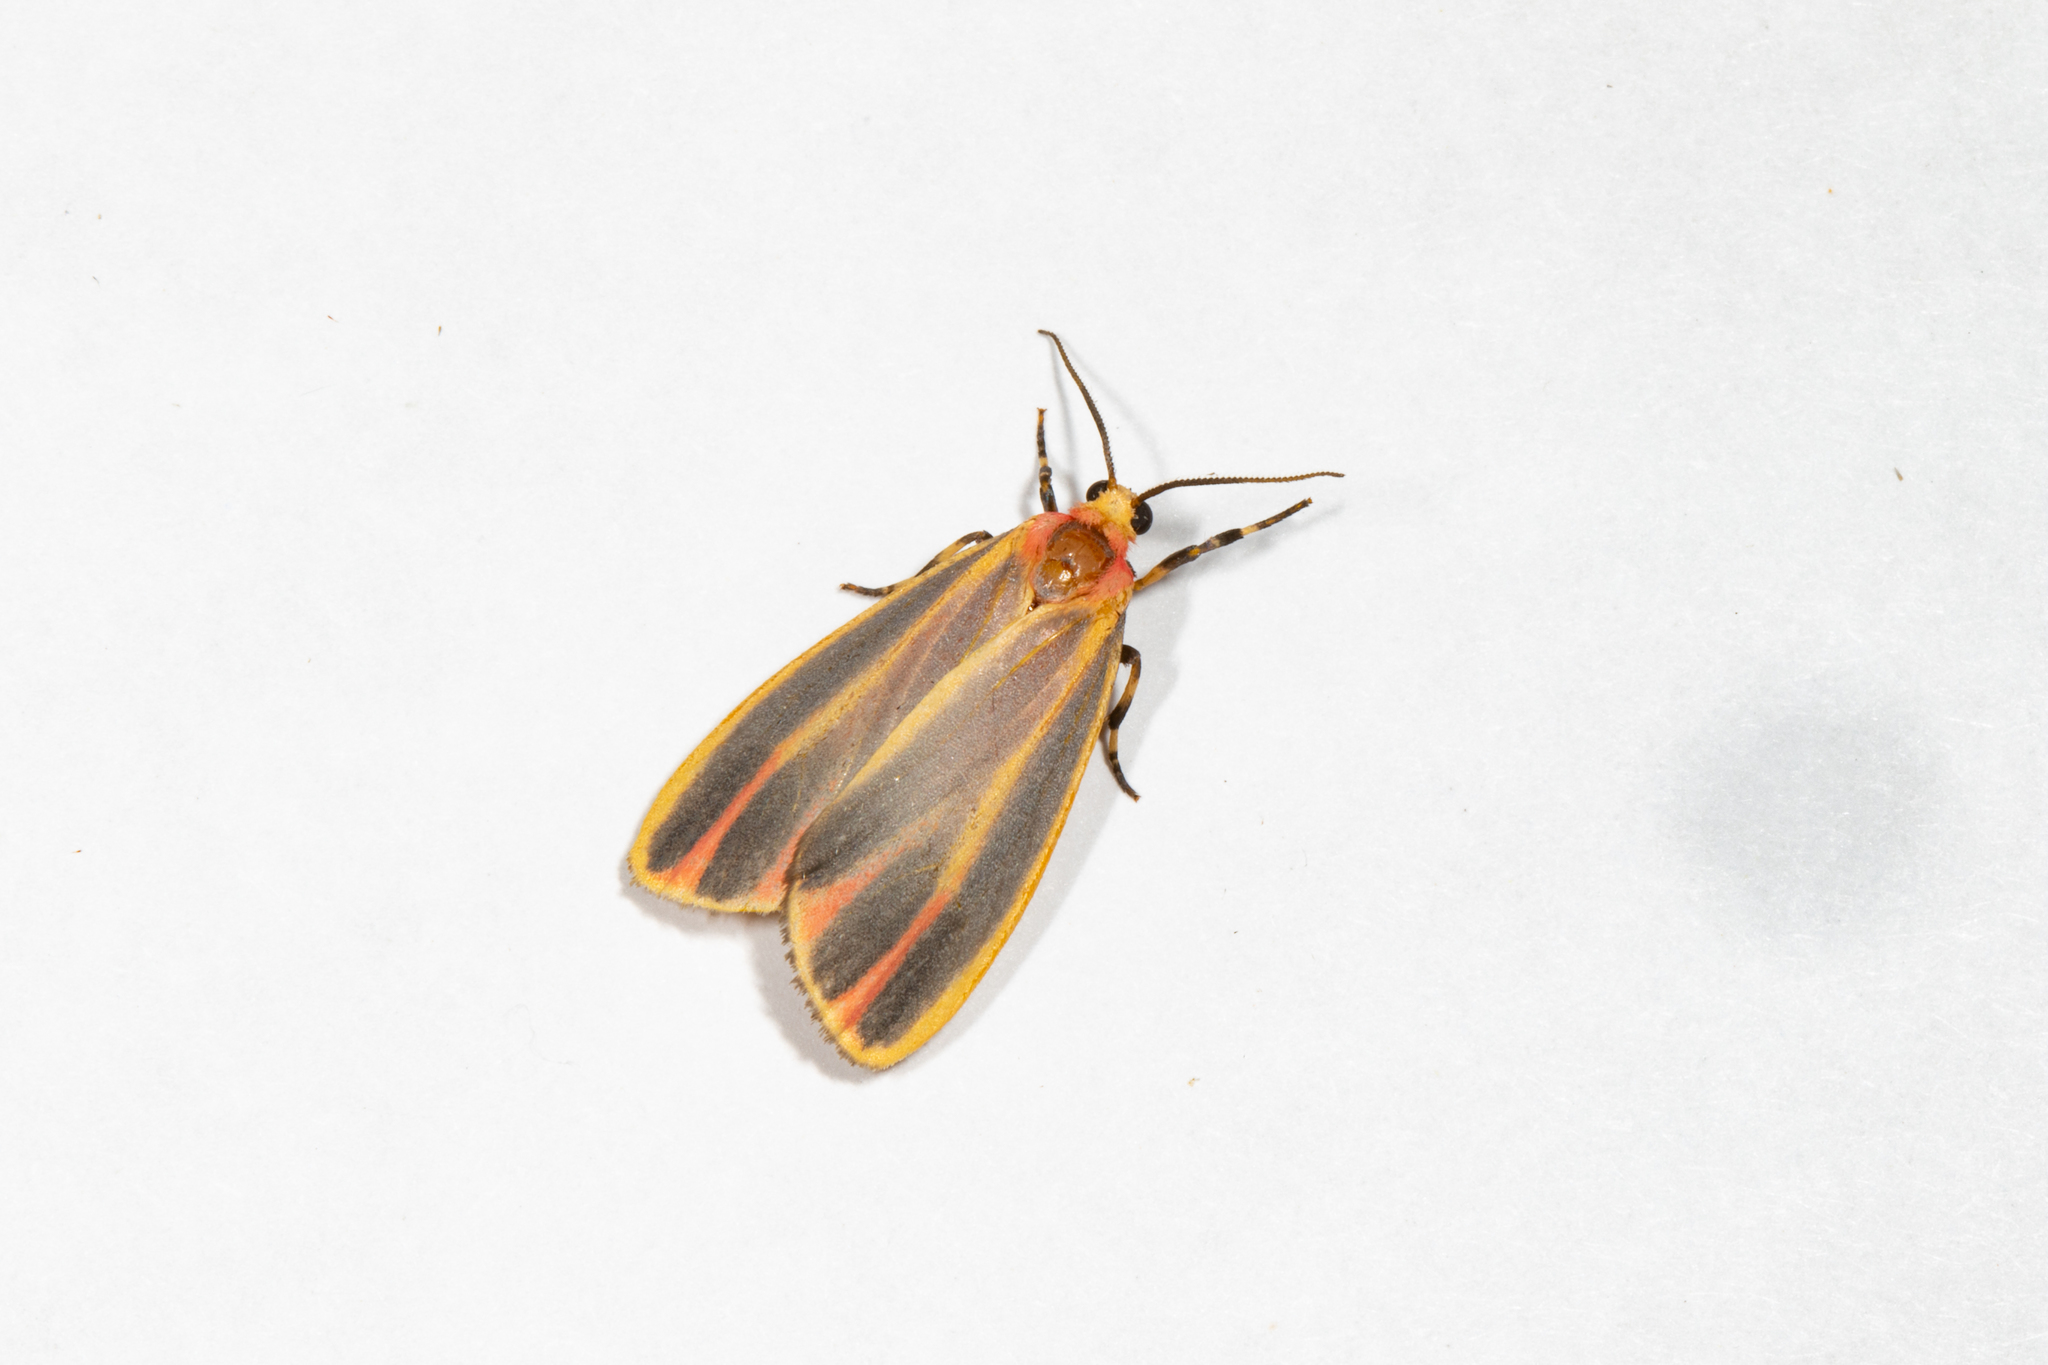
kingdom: Animalia
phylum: Arthropoda
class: Insecta
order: Lepidoptera
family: Erebidae
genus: Hypoprepia
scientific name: Hypoprepia fucosa
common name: Painted lichen moth
